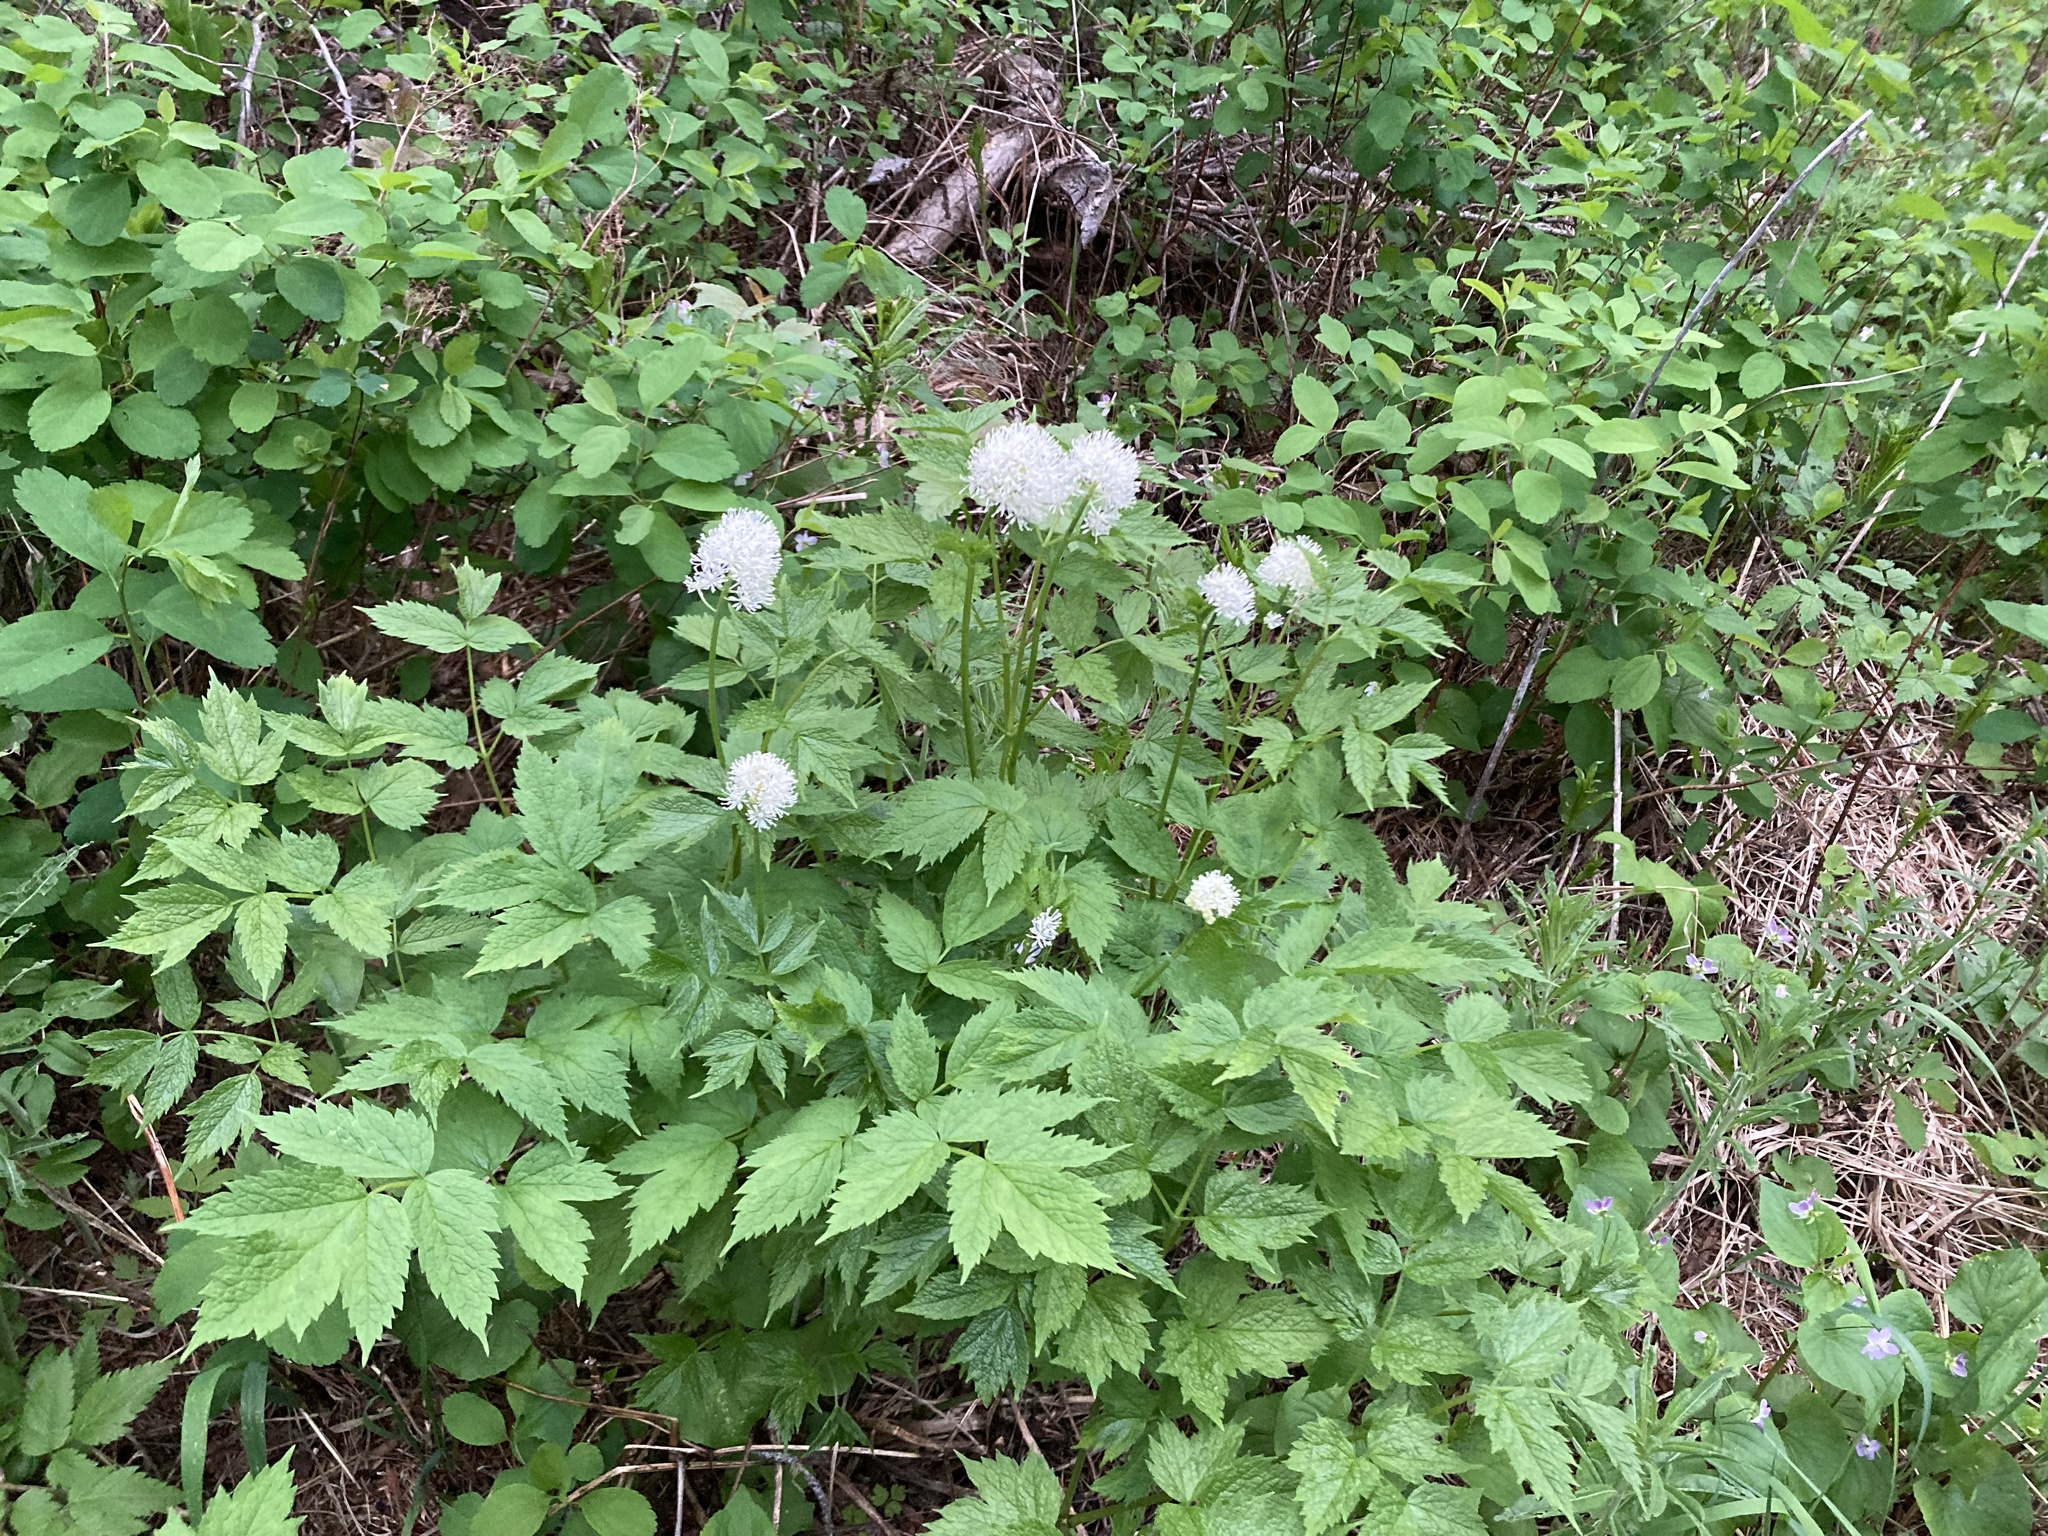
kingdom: Plantae
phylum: Tracheophyta
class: Magnoliopsida
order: Ranunculales
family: Ranunculaceae
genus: Actaea
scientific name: Actaea rubra
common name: Red baneberry
